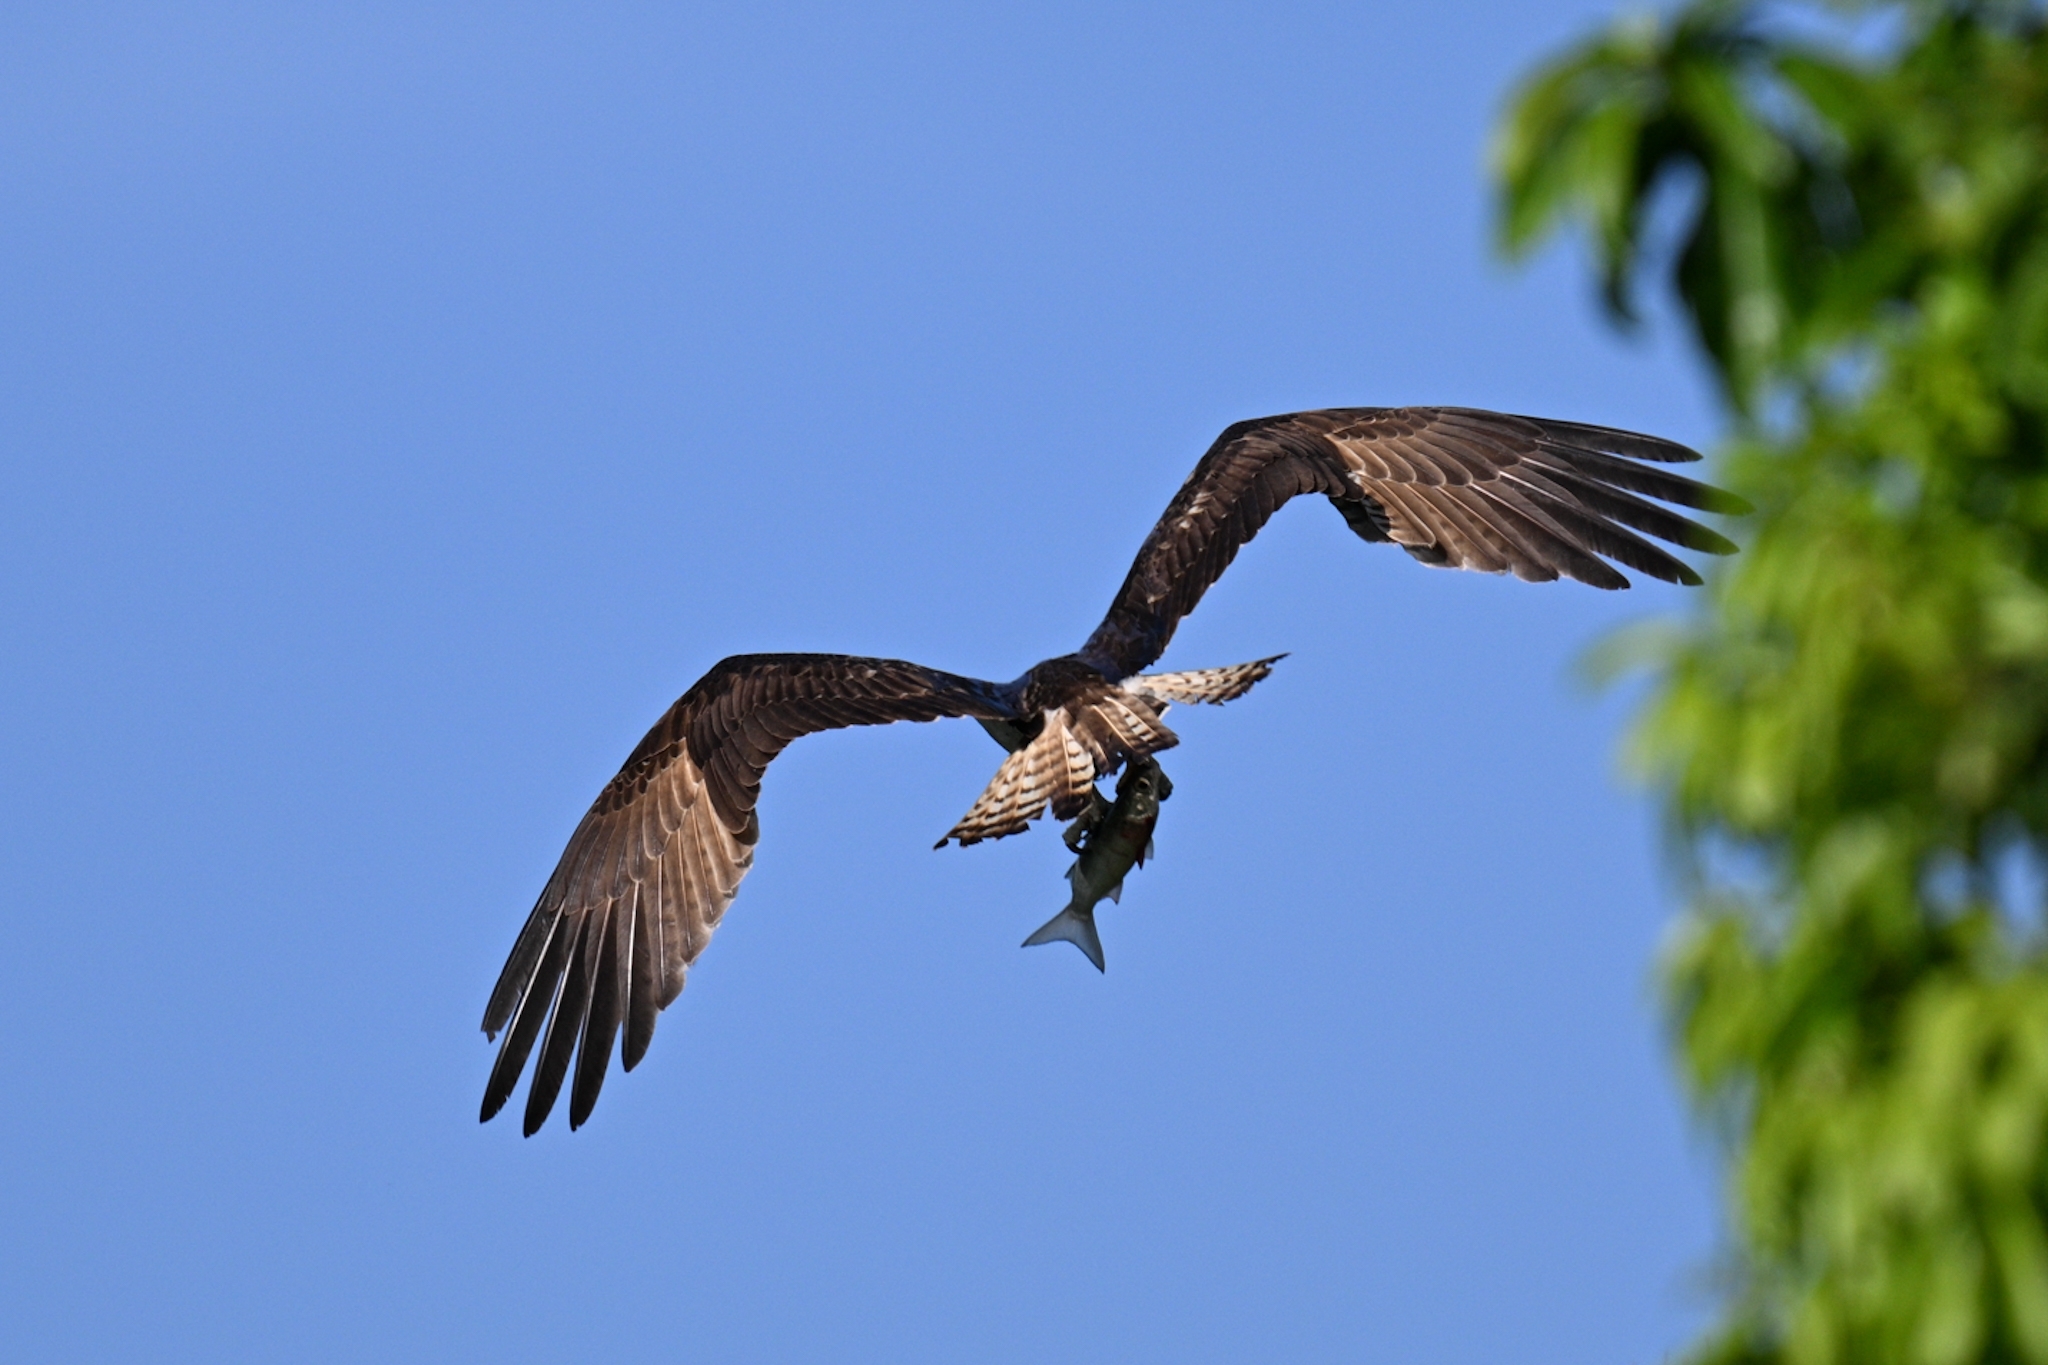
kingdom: Animalia
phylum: Chordata
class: Aves
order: Accipitriformes
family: Pandionidae
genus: Pandion
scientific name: Pandion haliaetus
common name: Osprey
